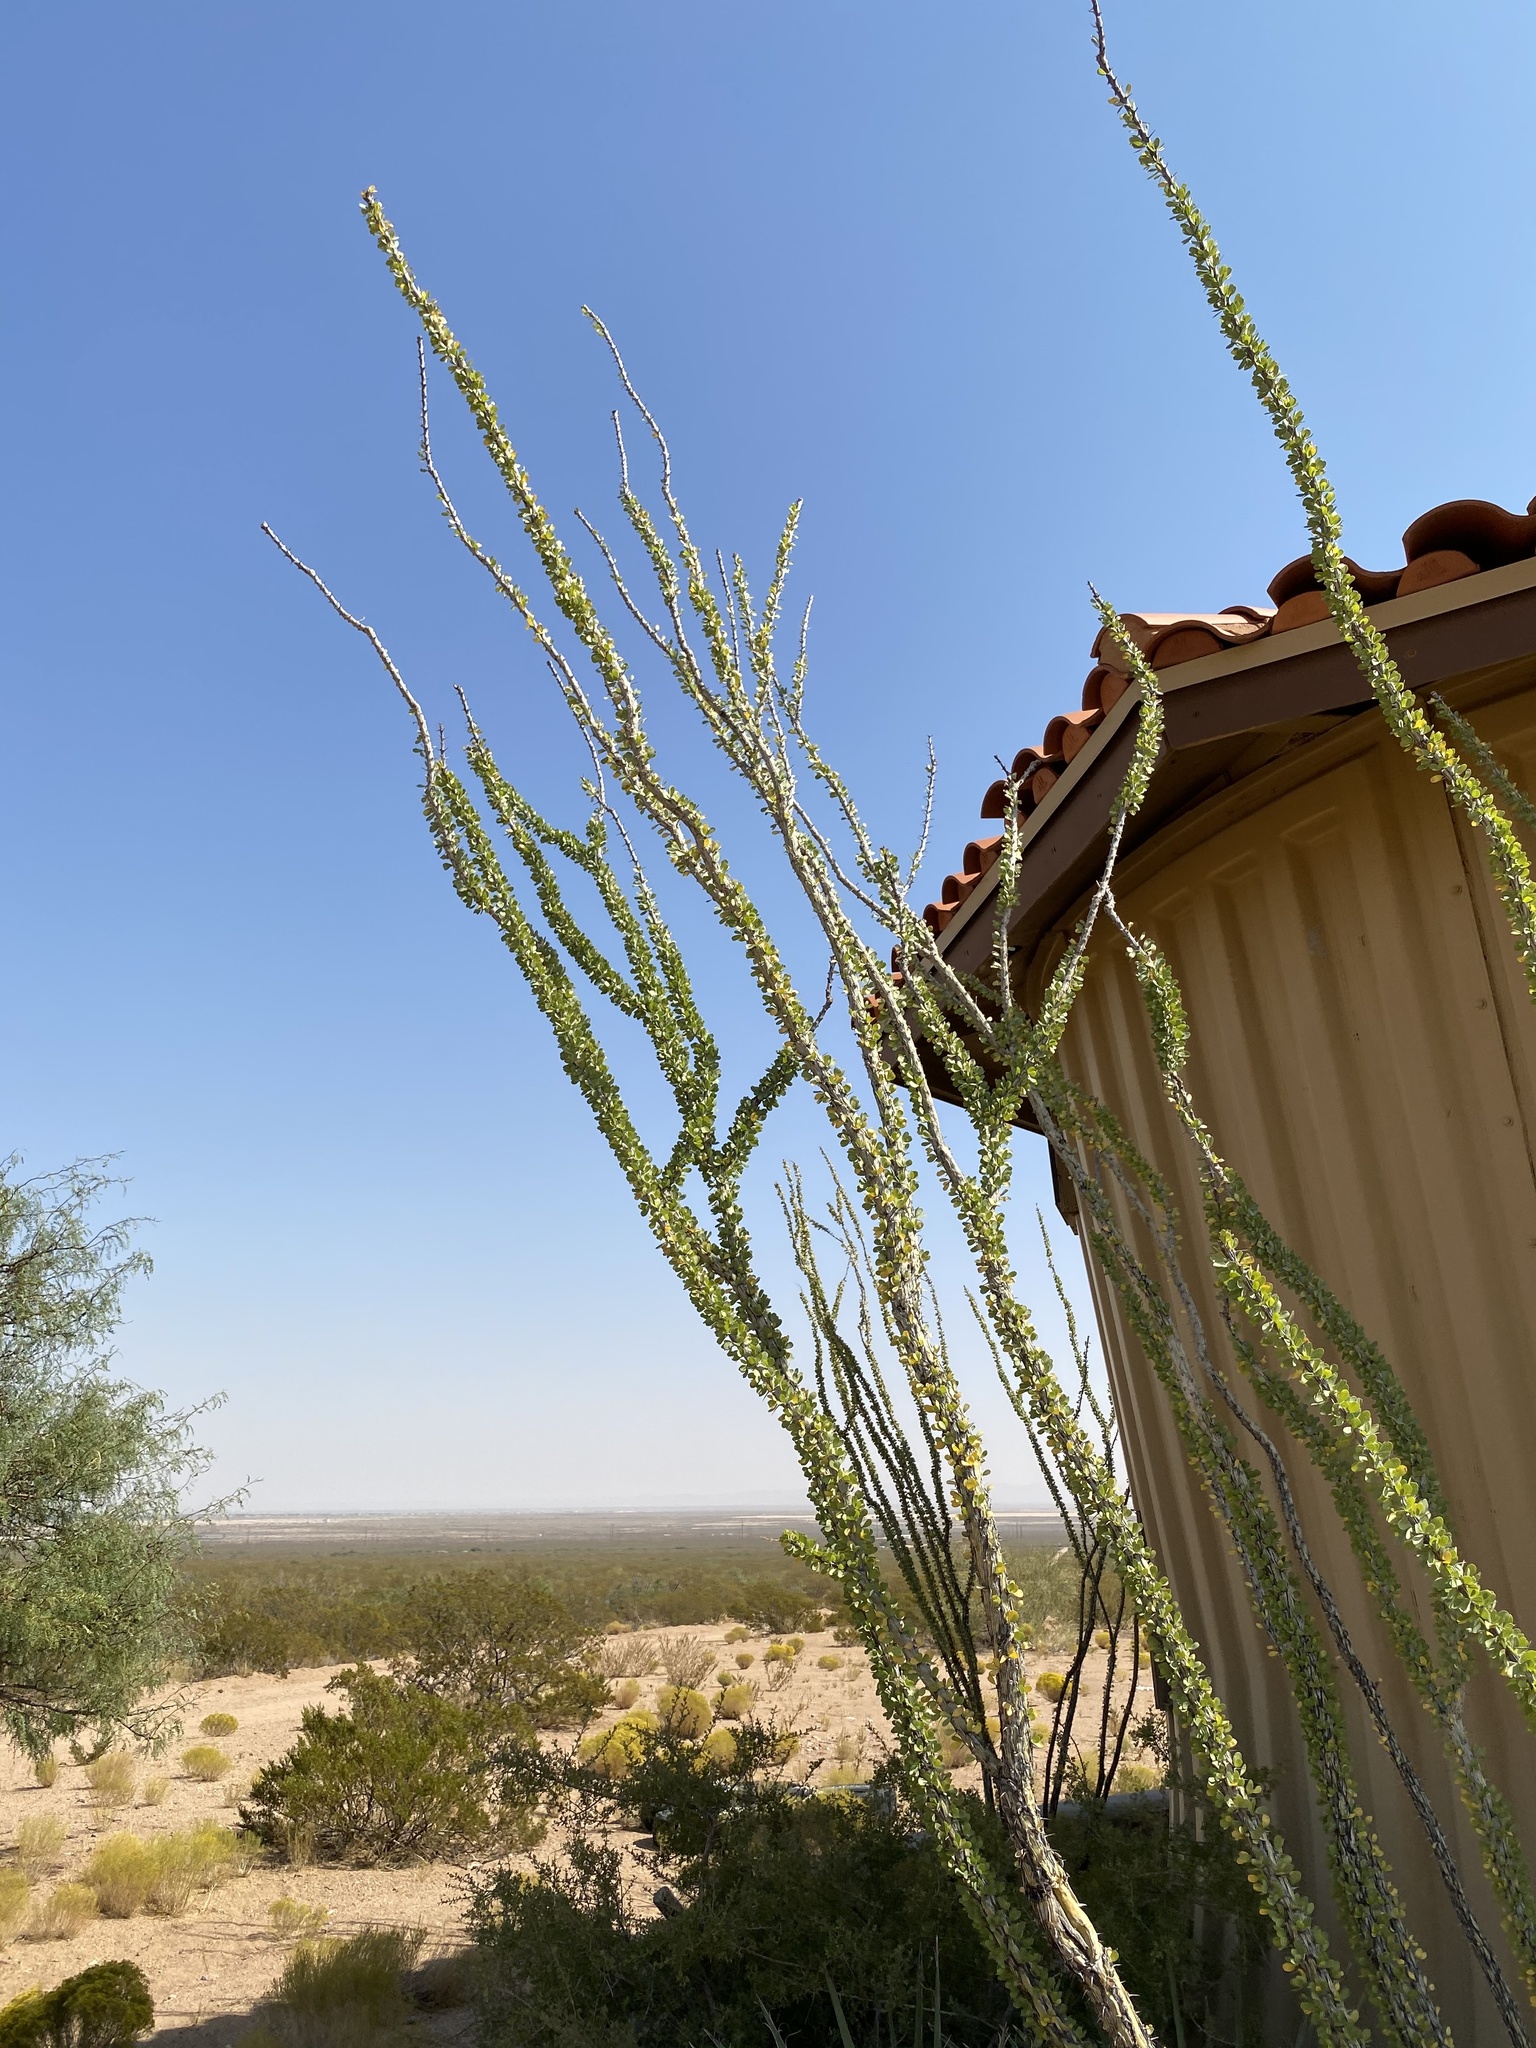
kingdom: Plantae
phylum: Tracheophyta
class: Magnoliopsida
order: Ericales
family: Fouquieriaceae
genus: Fouquieria
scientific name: Fouquieria splendens
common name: Vine-cactus
